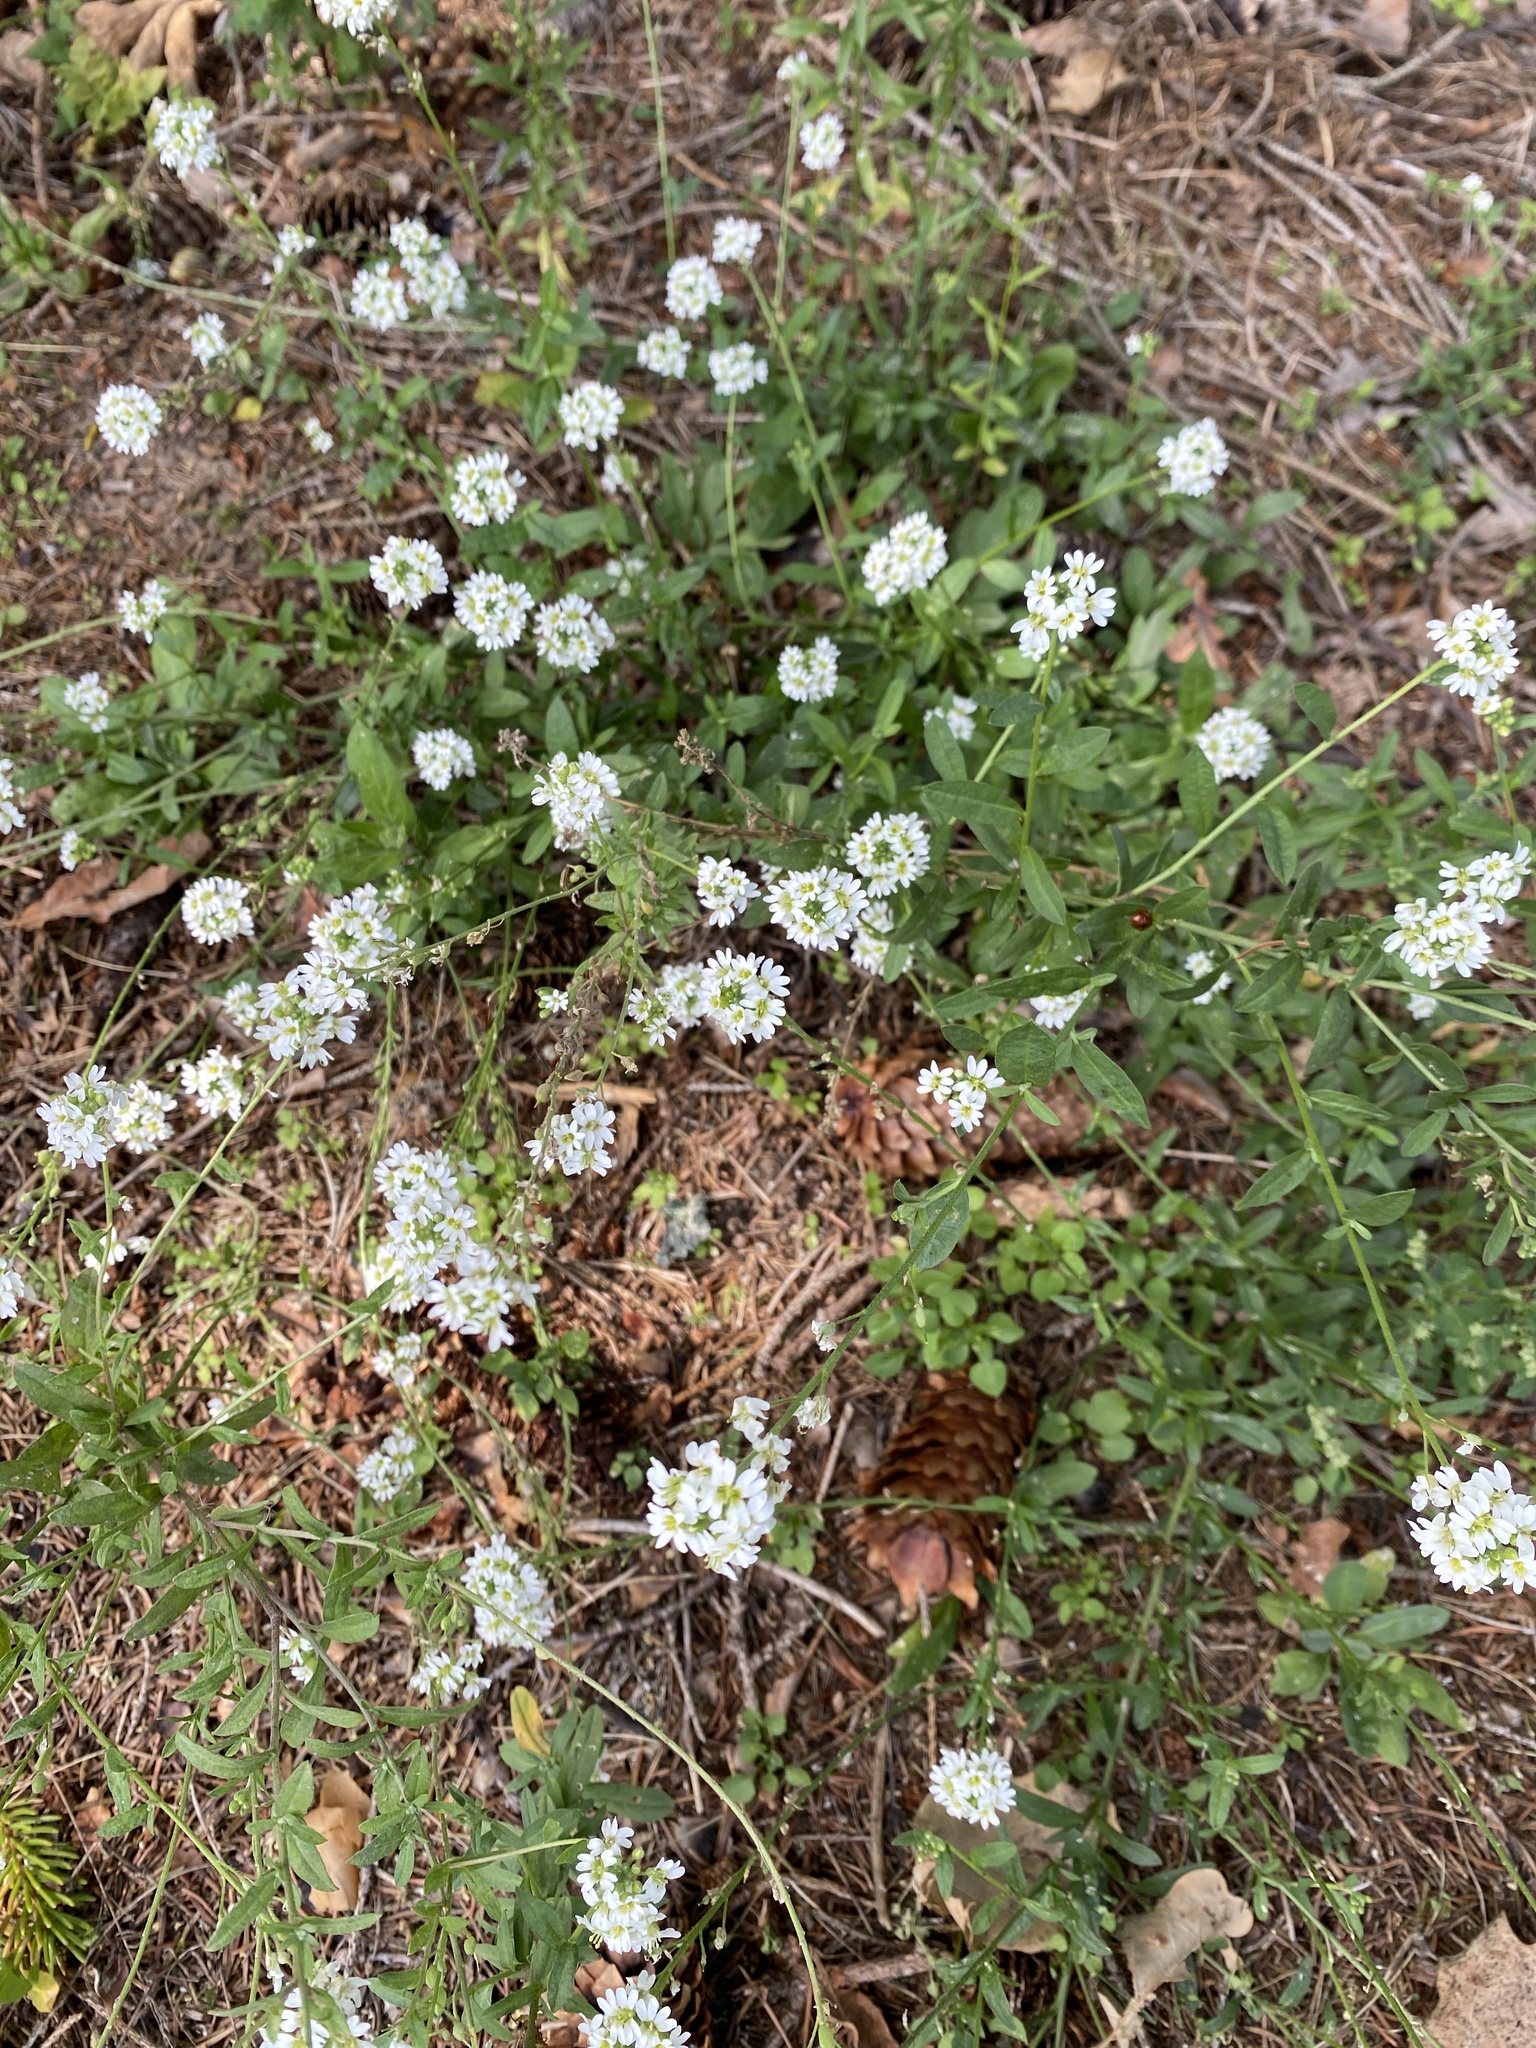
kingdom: Plantae
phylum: Tracheophyta
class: Magnoliopsida
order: Brassicales
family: Brassicaceae
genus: Berteroa
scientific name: Berteroa incana
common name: Hoary alison
